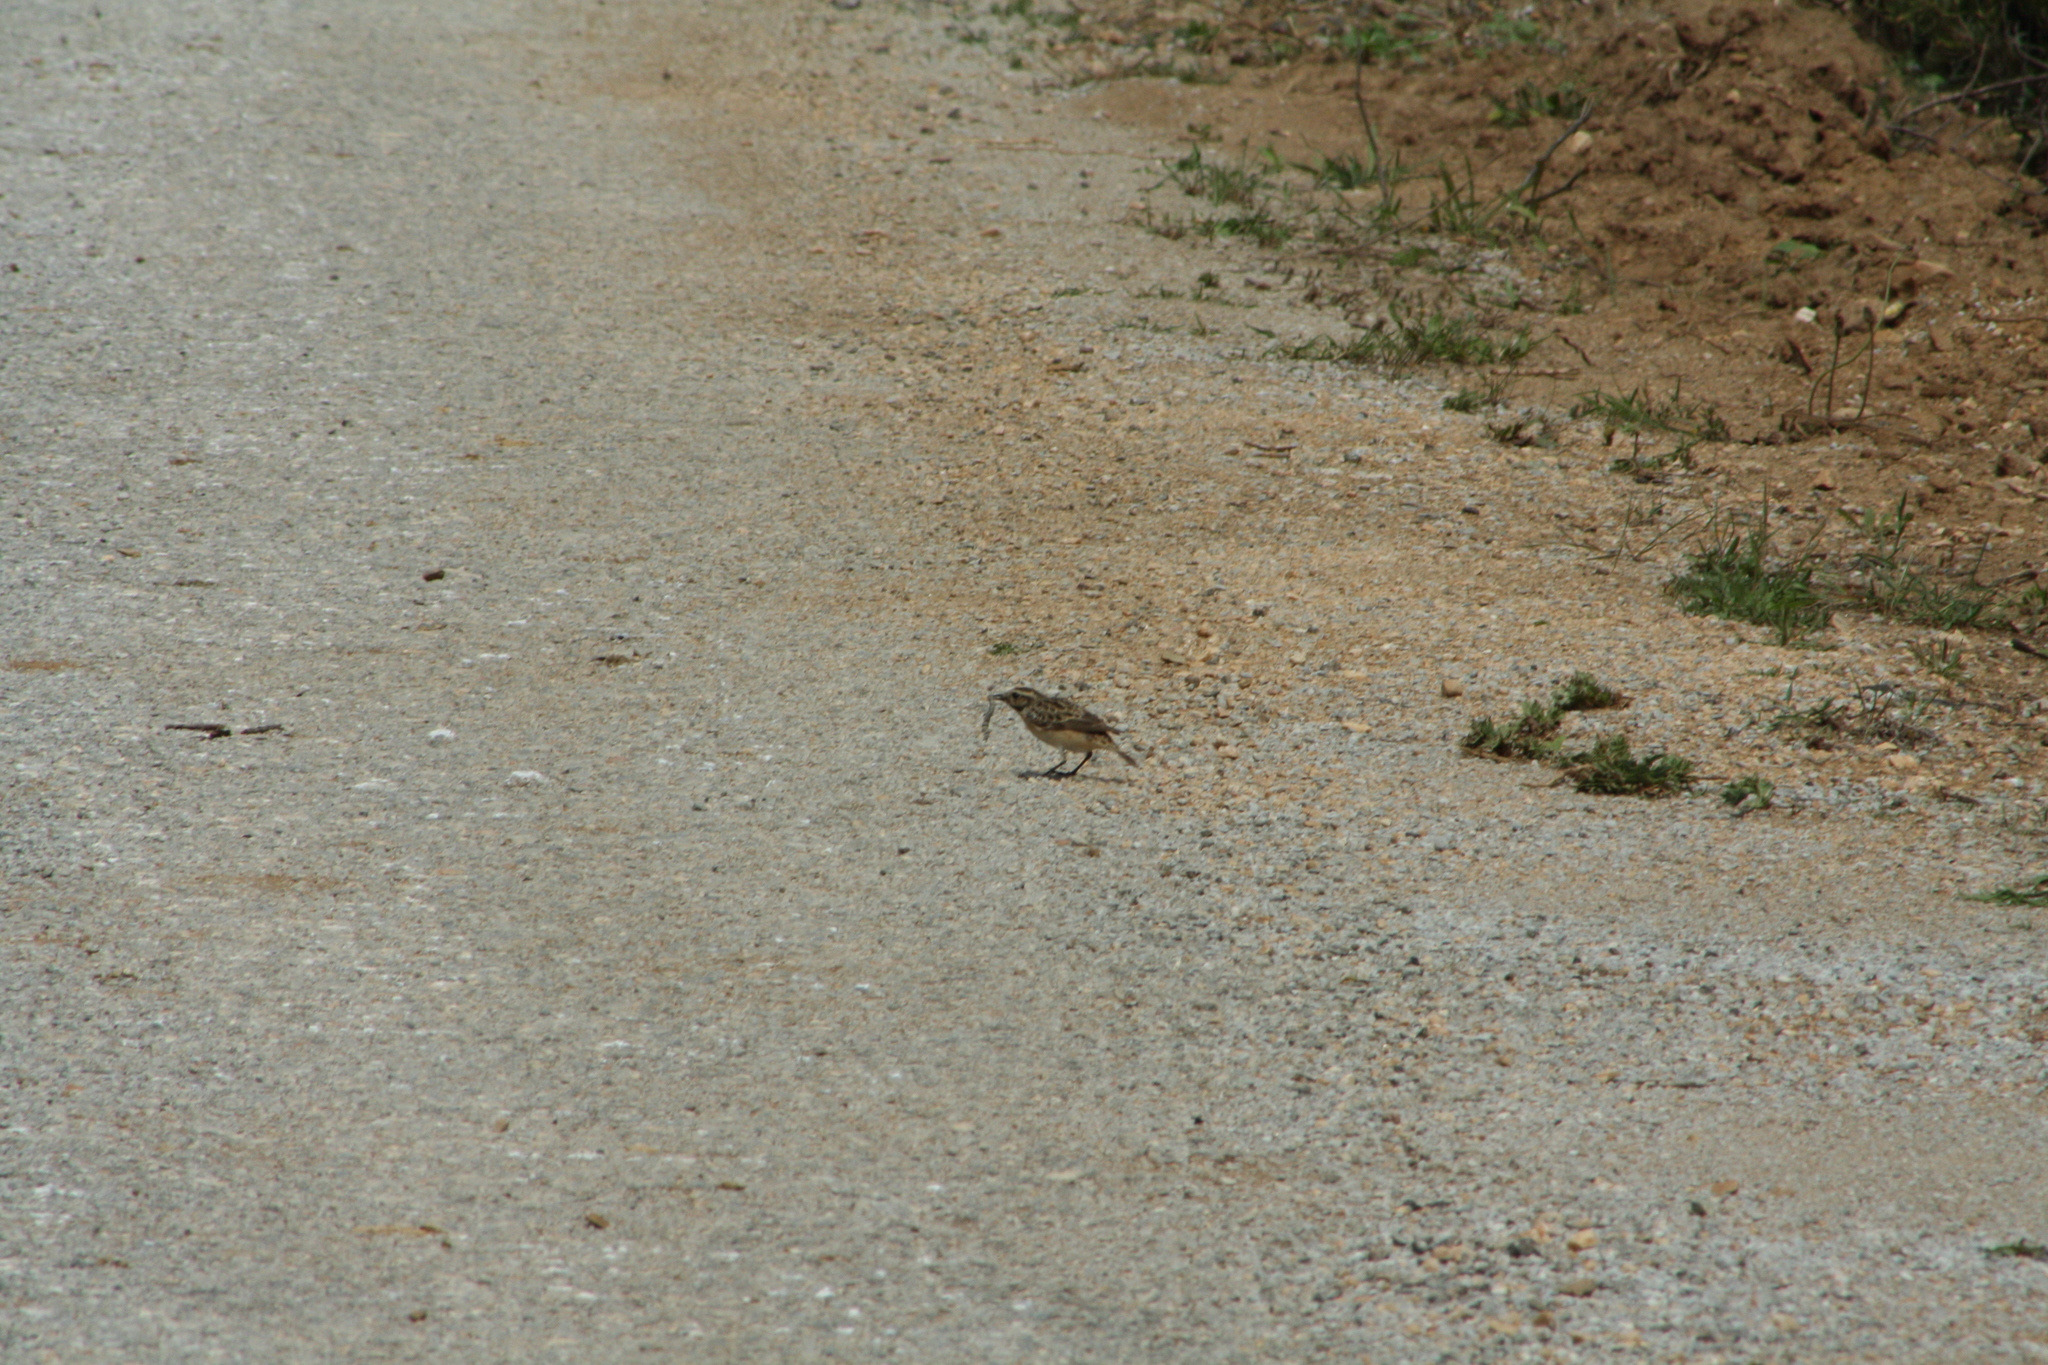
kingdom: Animalia
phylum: Chordata
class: Aves
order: Passeriformes
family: Muscicapidae
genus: Saxicola
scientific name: Saxicola rubetra
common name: Whinchat
